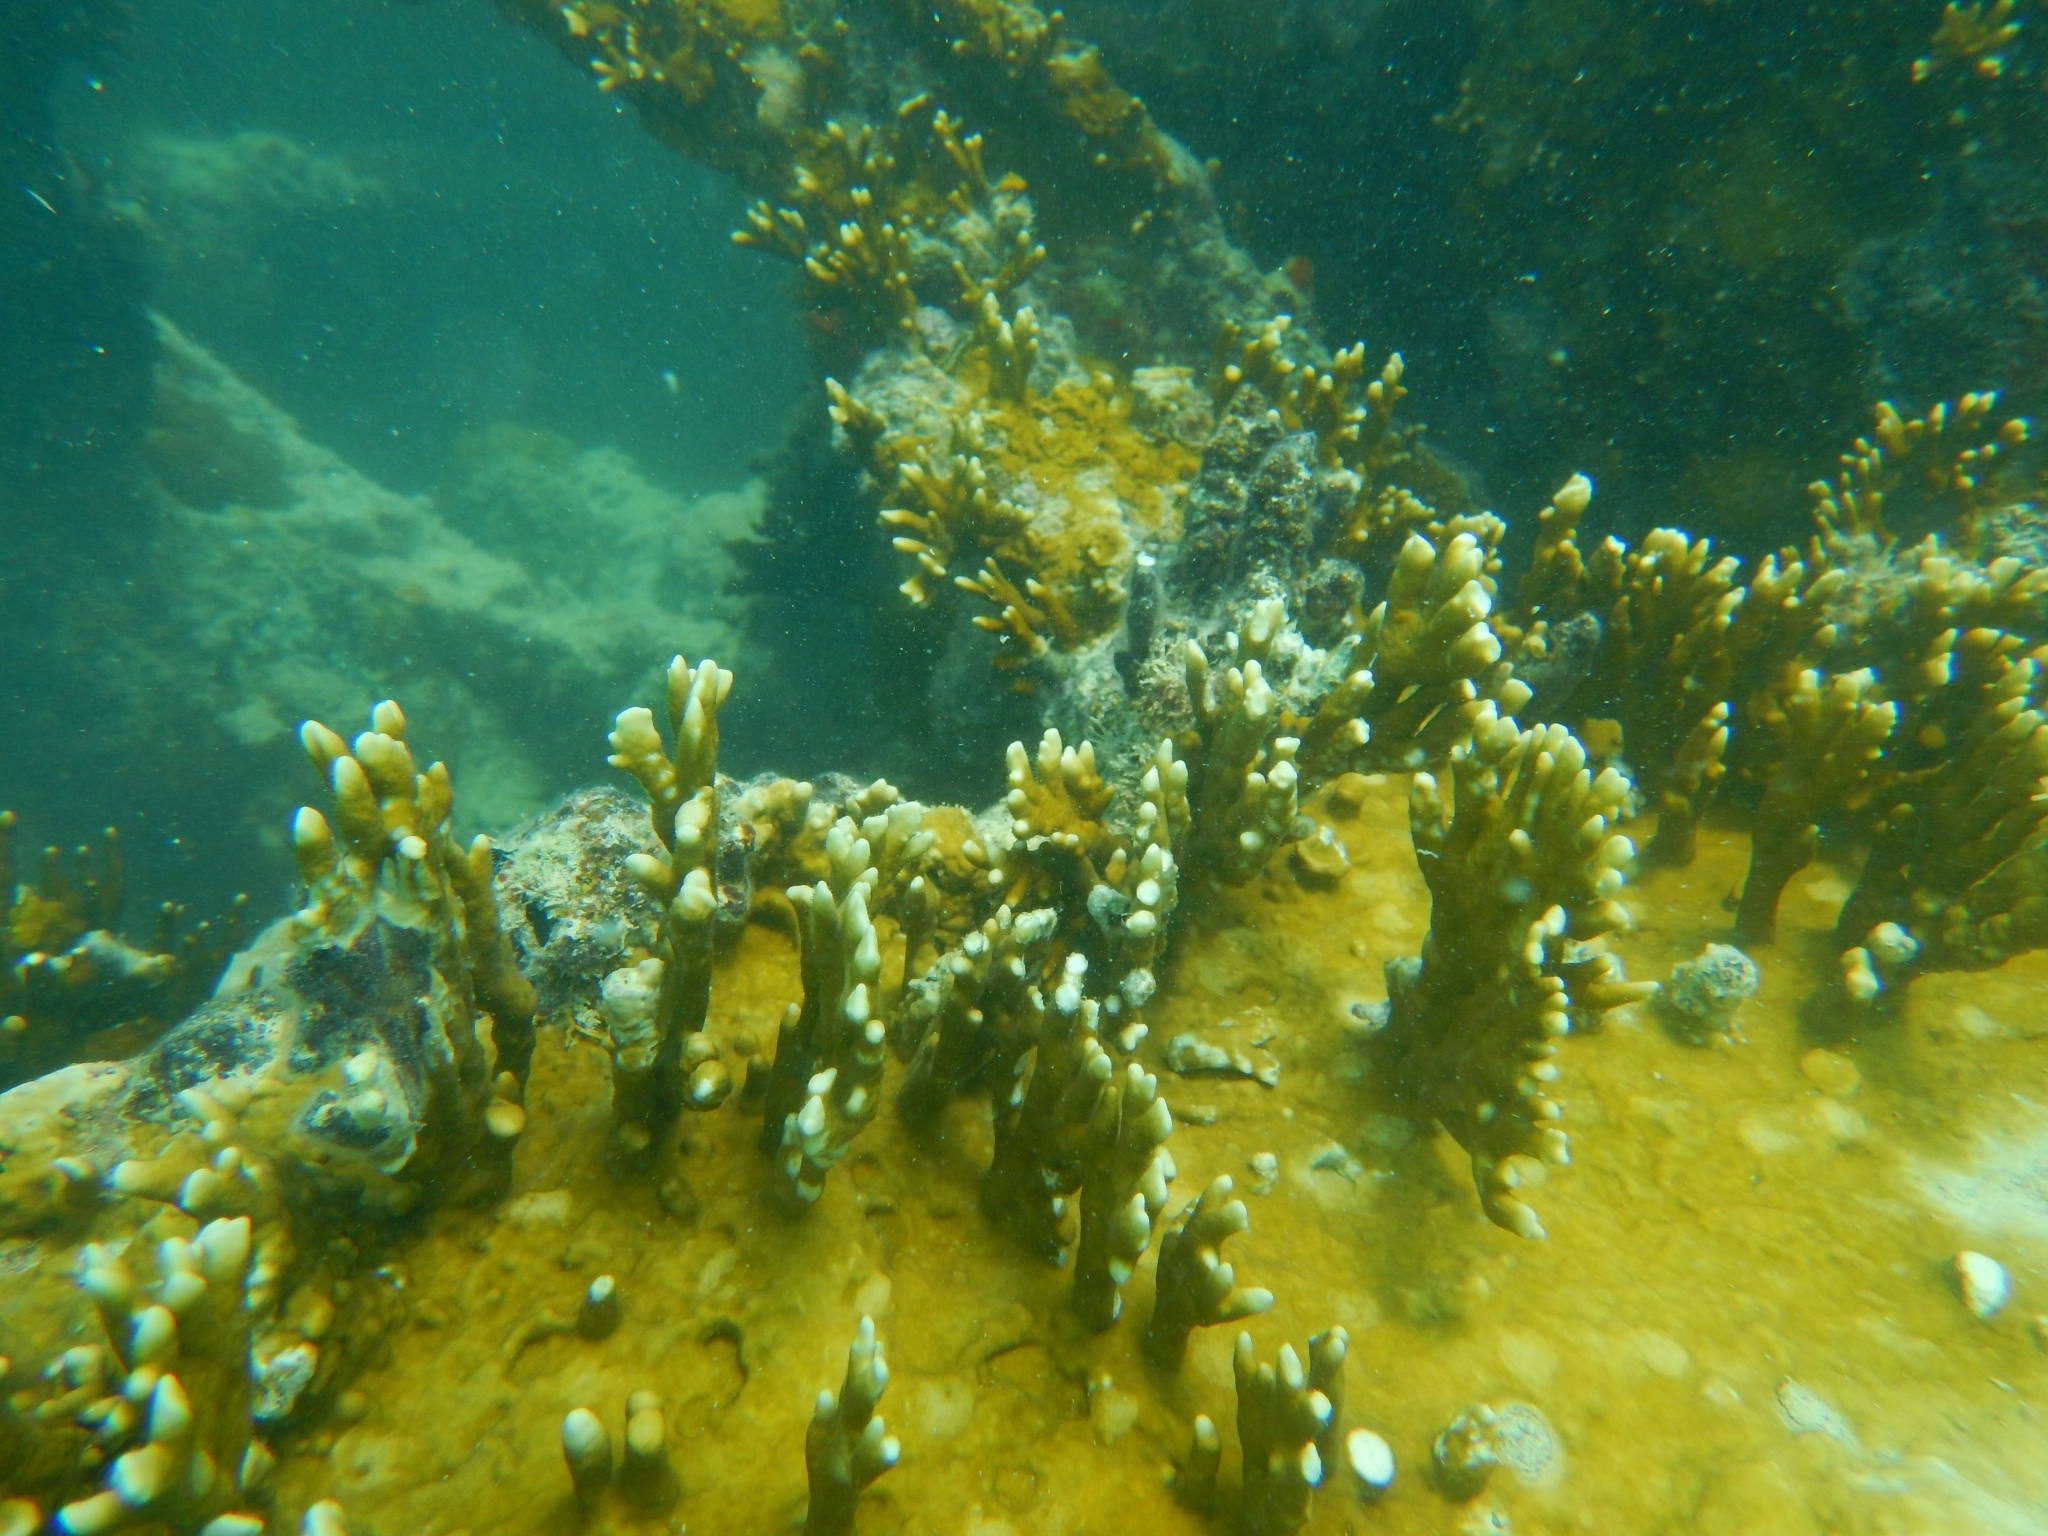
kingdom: Animalia
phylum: Cnidaria
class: Hydrozoa
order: Anthoathecata
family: Milleporidae
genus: Millepora
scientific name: Millepora alcicornis
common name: Branching fire coral
